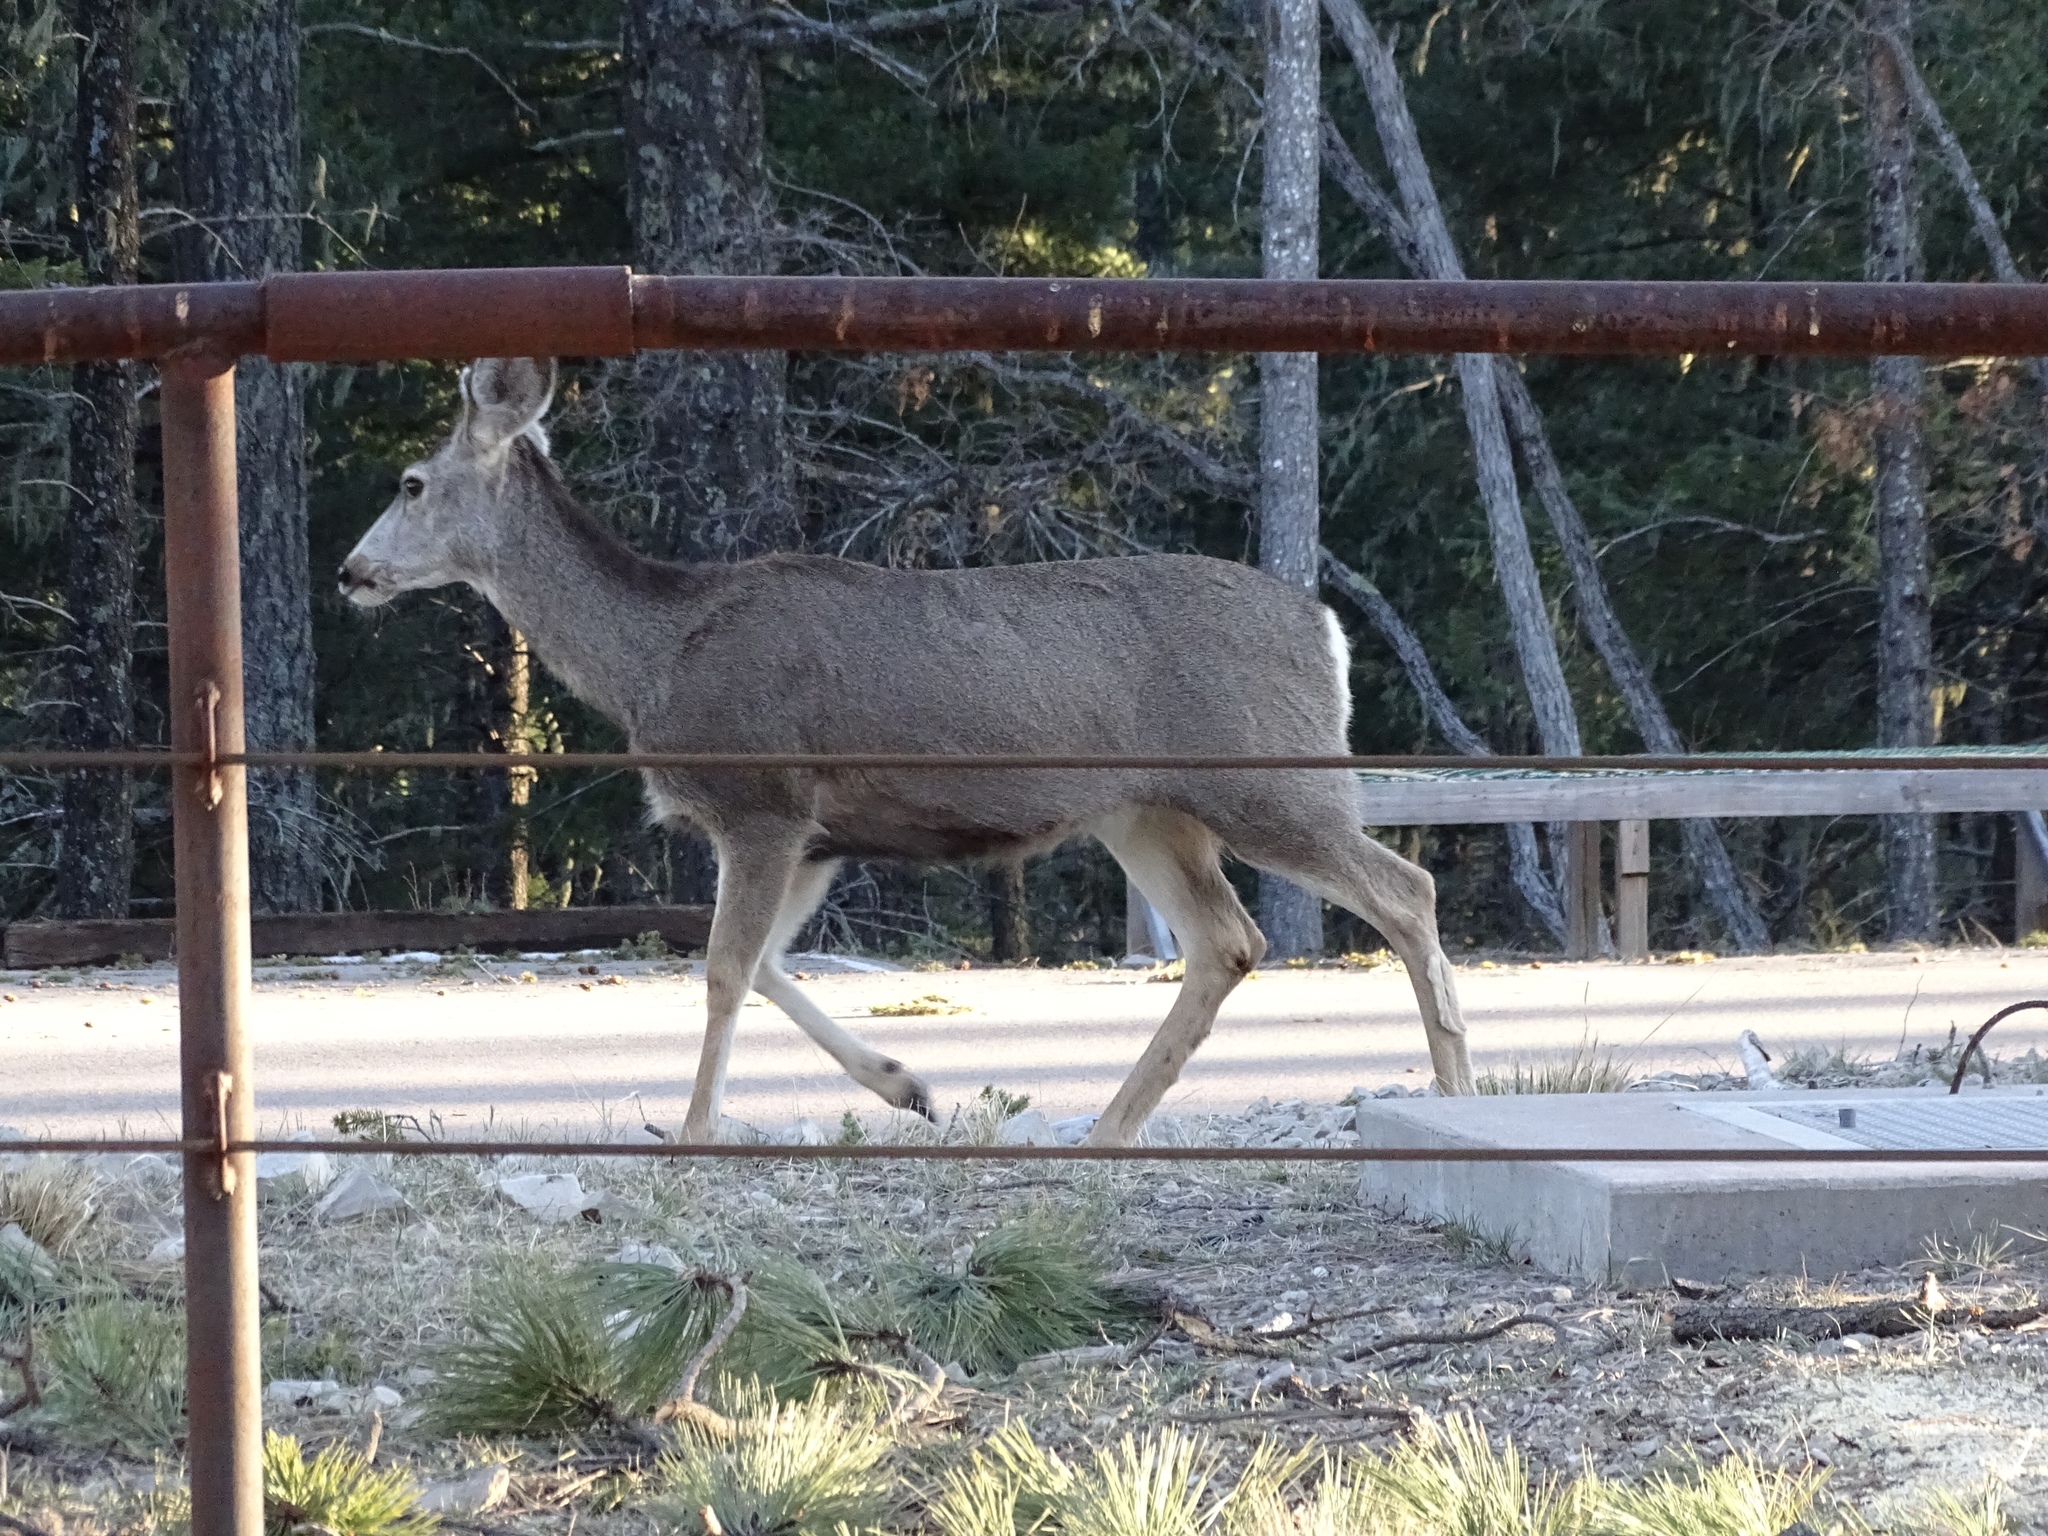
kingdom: Animalia
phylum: Chordata
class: Mammalia
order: Artiodactyla
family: Cervidae
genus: Odocoileus
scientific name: Odocoileus hemionus
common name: Mule deer
